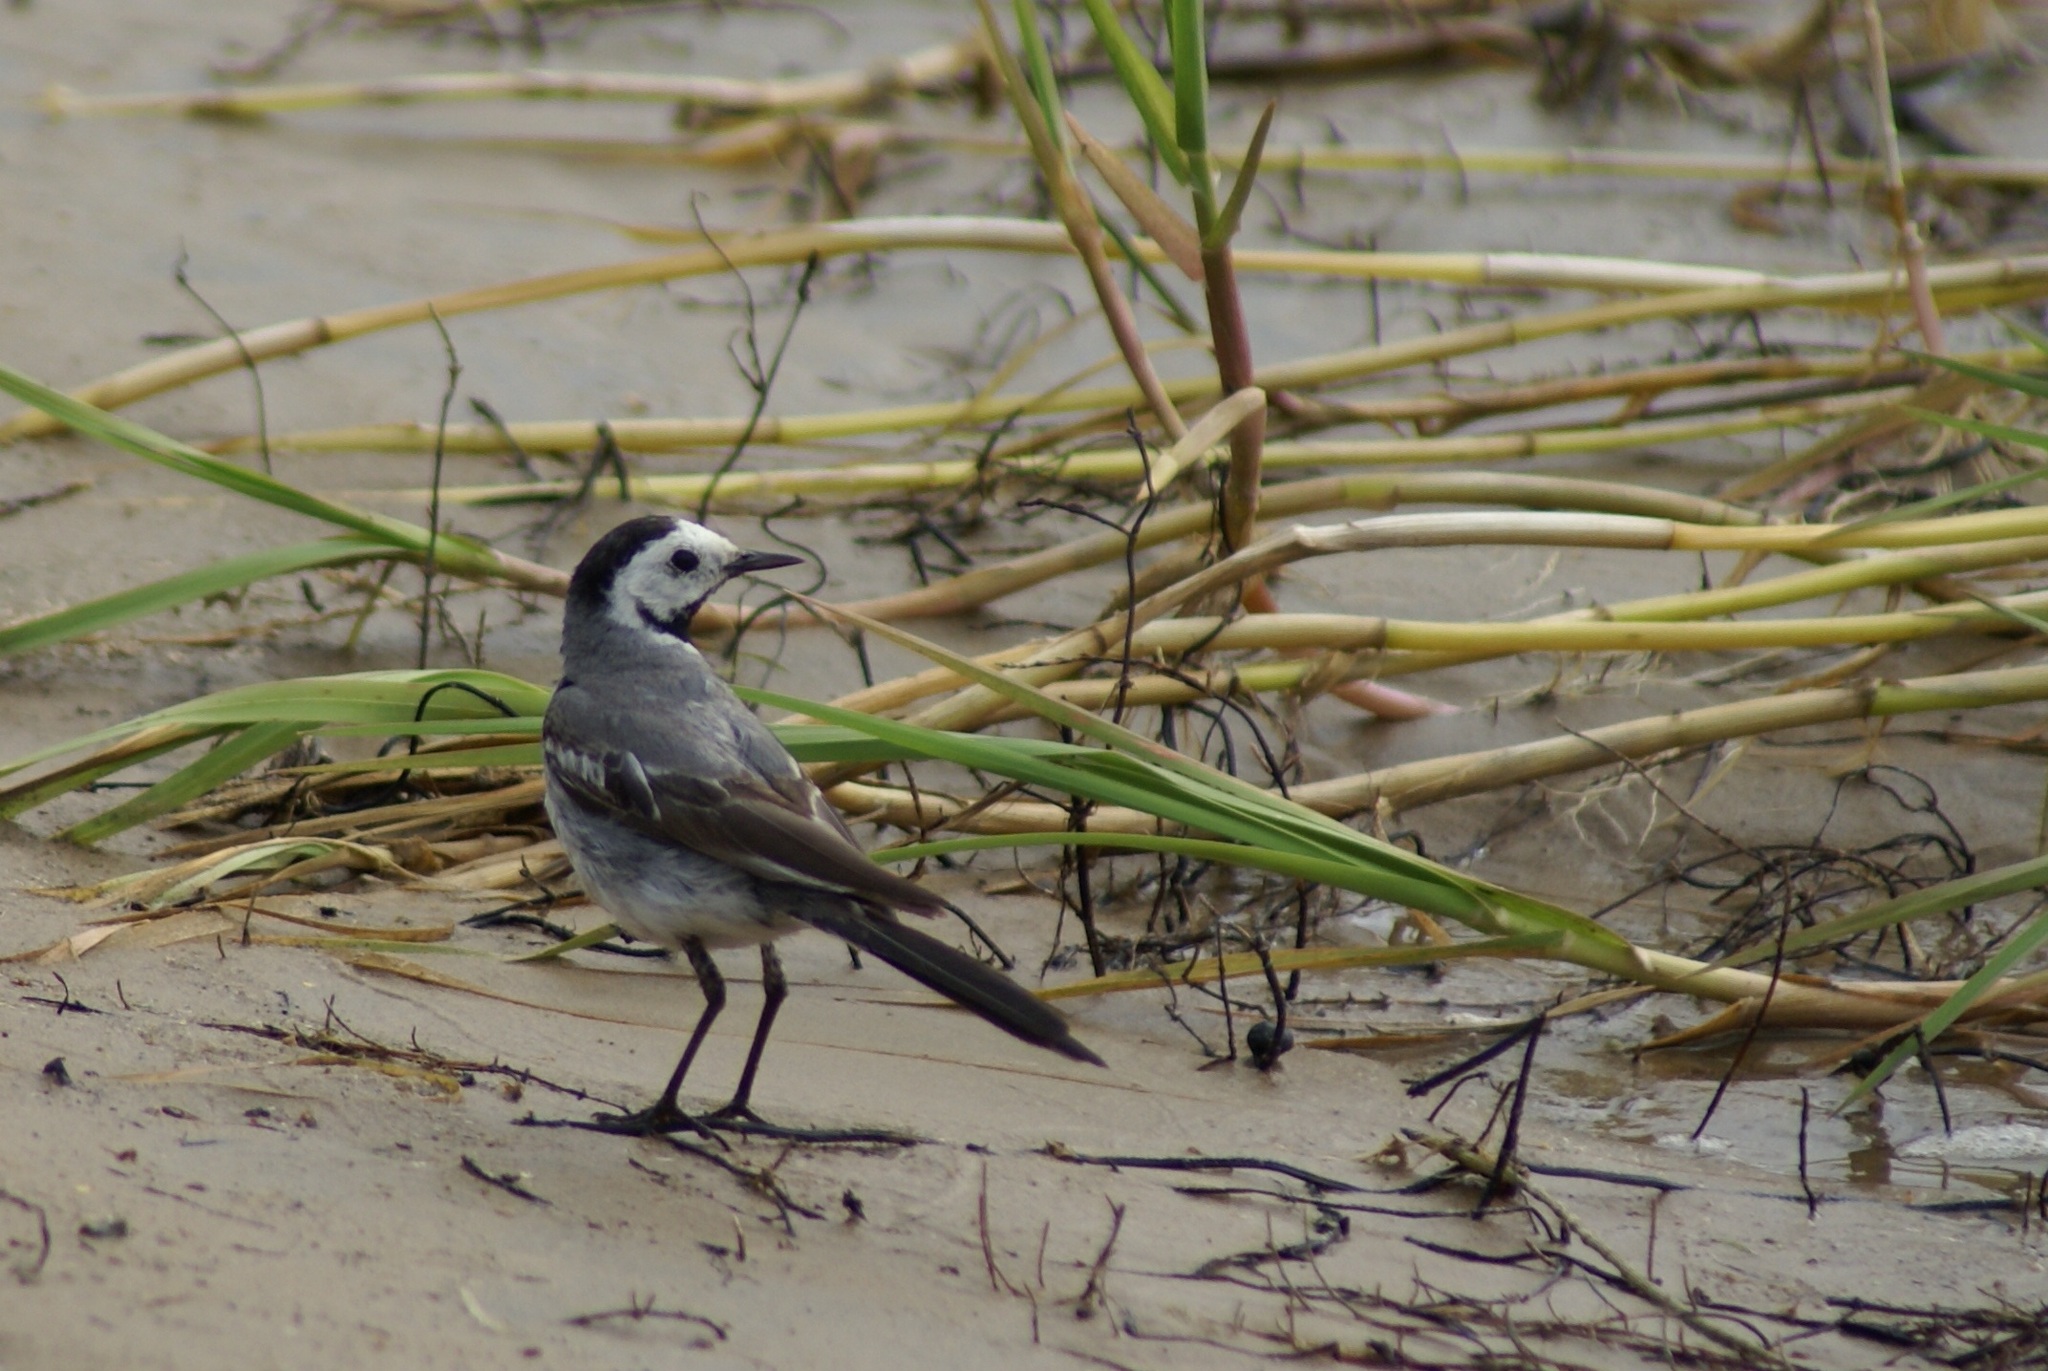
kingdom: Animalia
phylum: Chordata
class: Aves
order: Passeriformes
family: Motacillidae
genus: Motacilla
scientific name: Motacilla alba
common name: White wagtail
